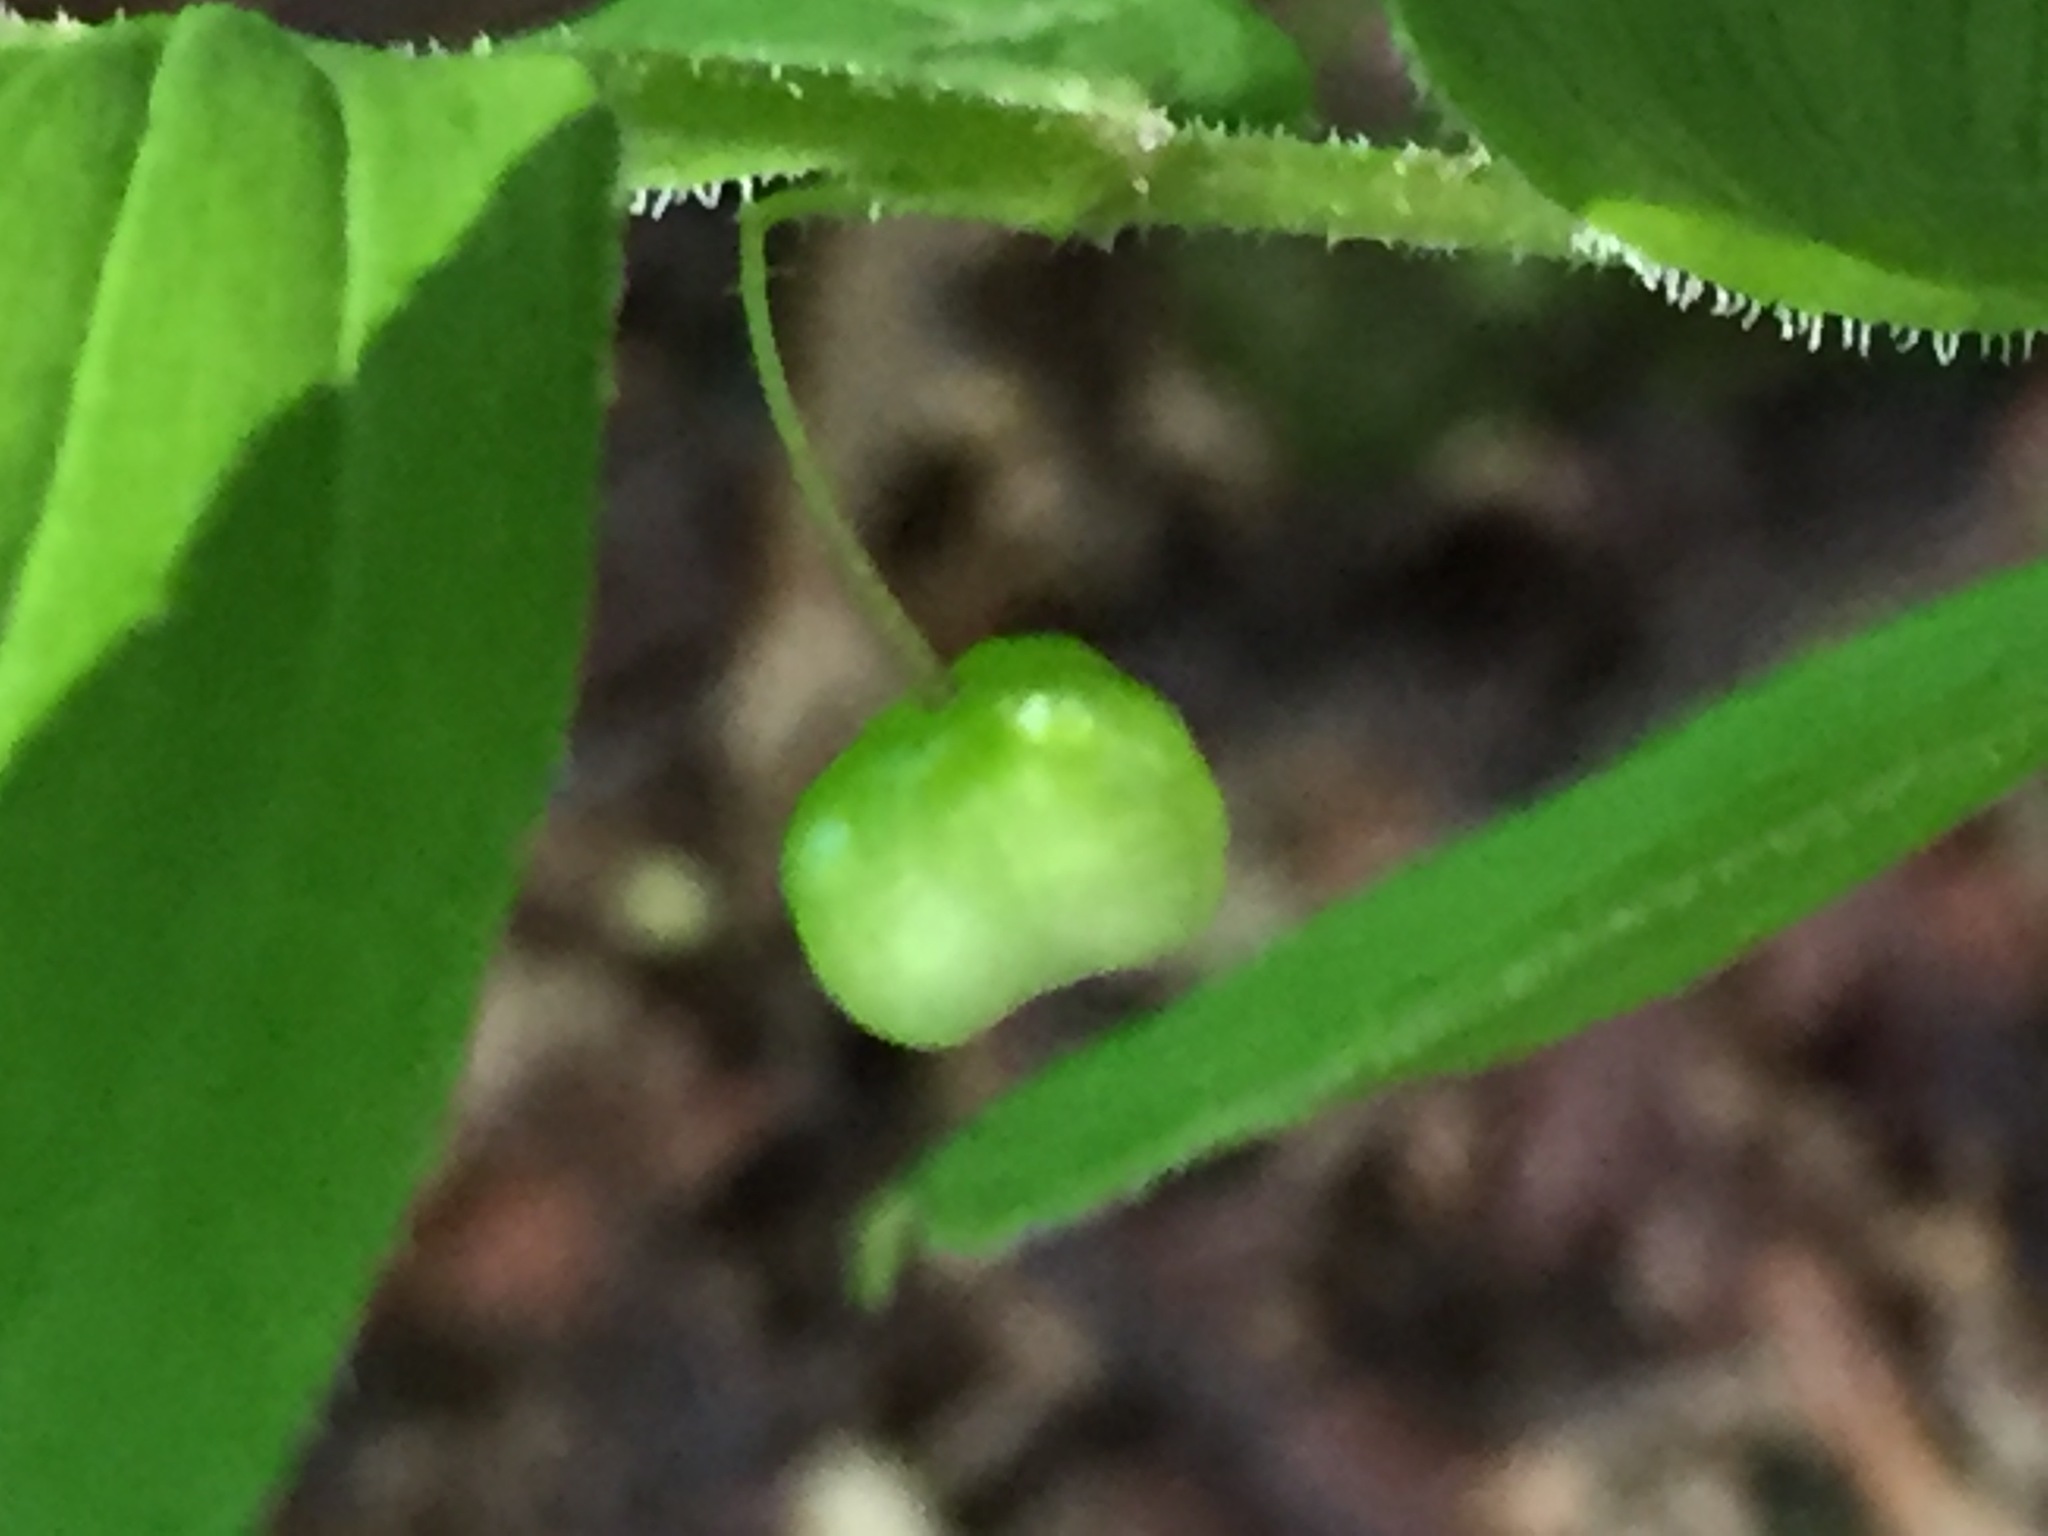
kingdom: Plantae
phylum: Tracheophyta
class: Liliopsida
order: Liliales
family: Liliaceae
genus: Streptopus
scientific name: Streptopus lanceolatus
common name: Rose mandarin
